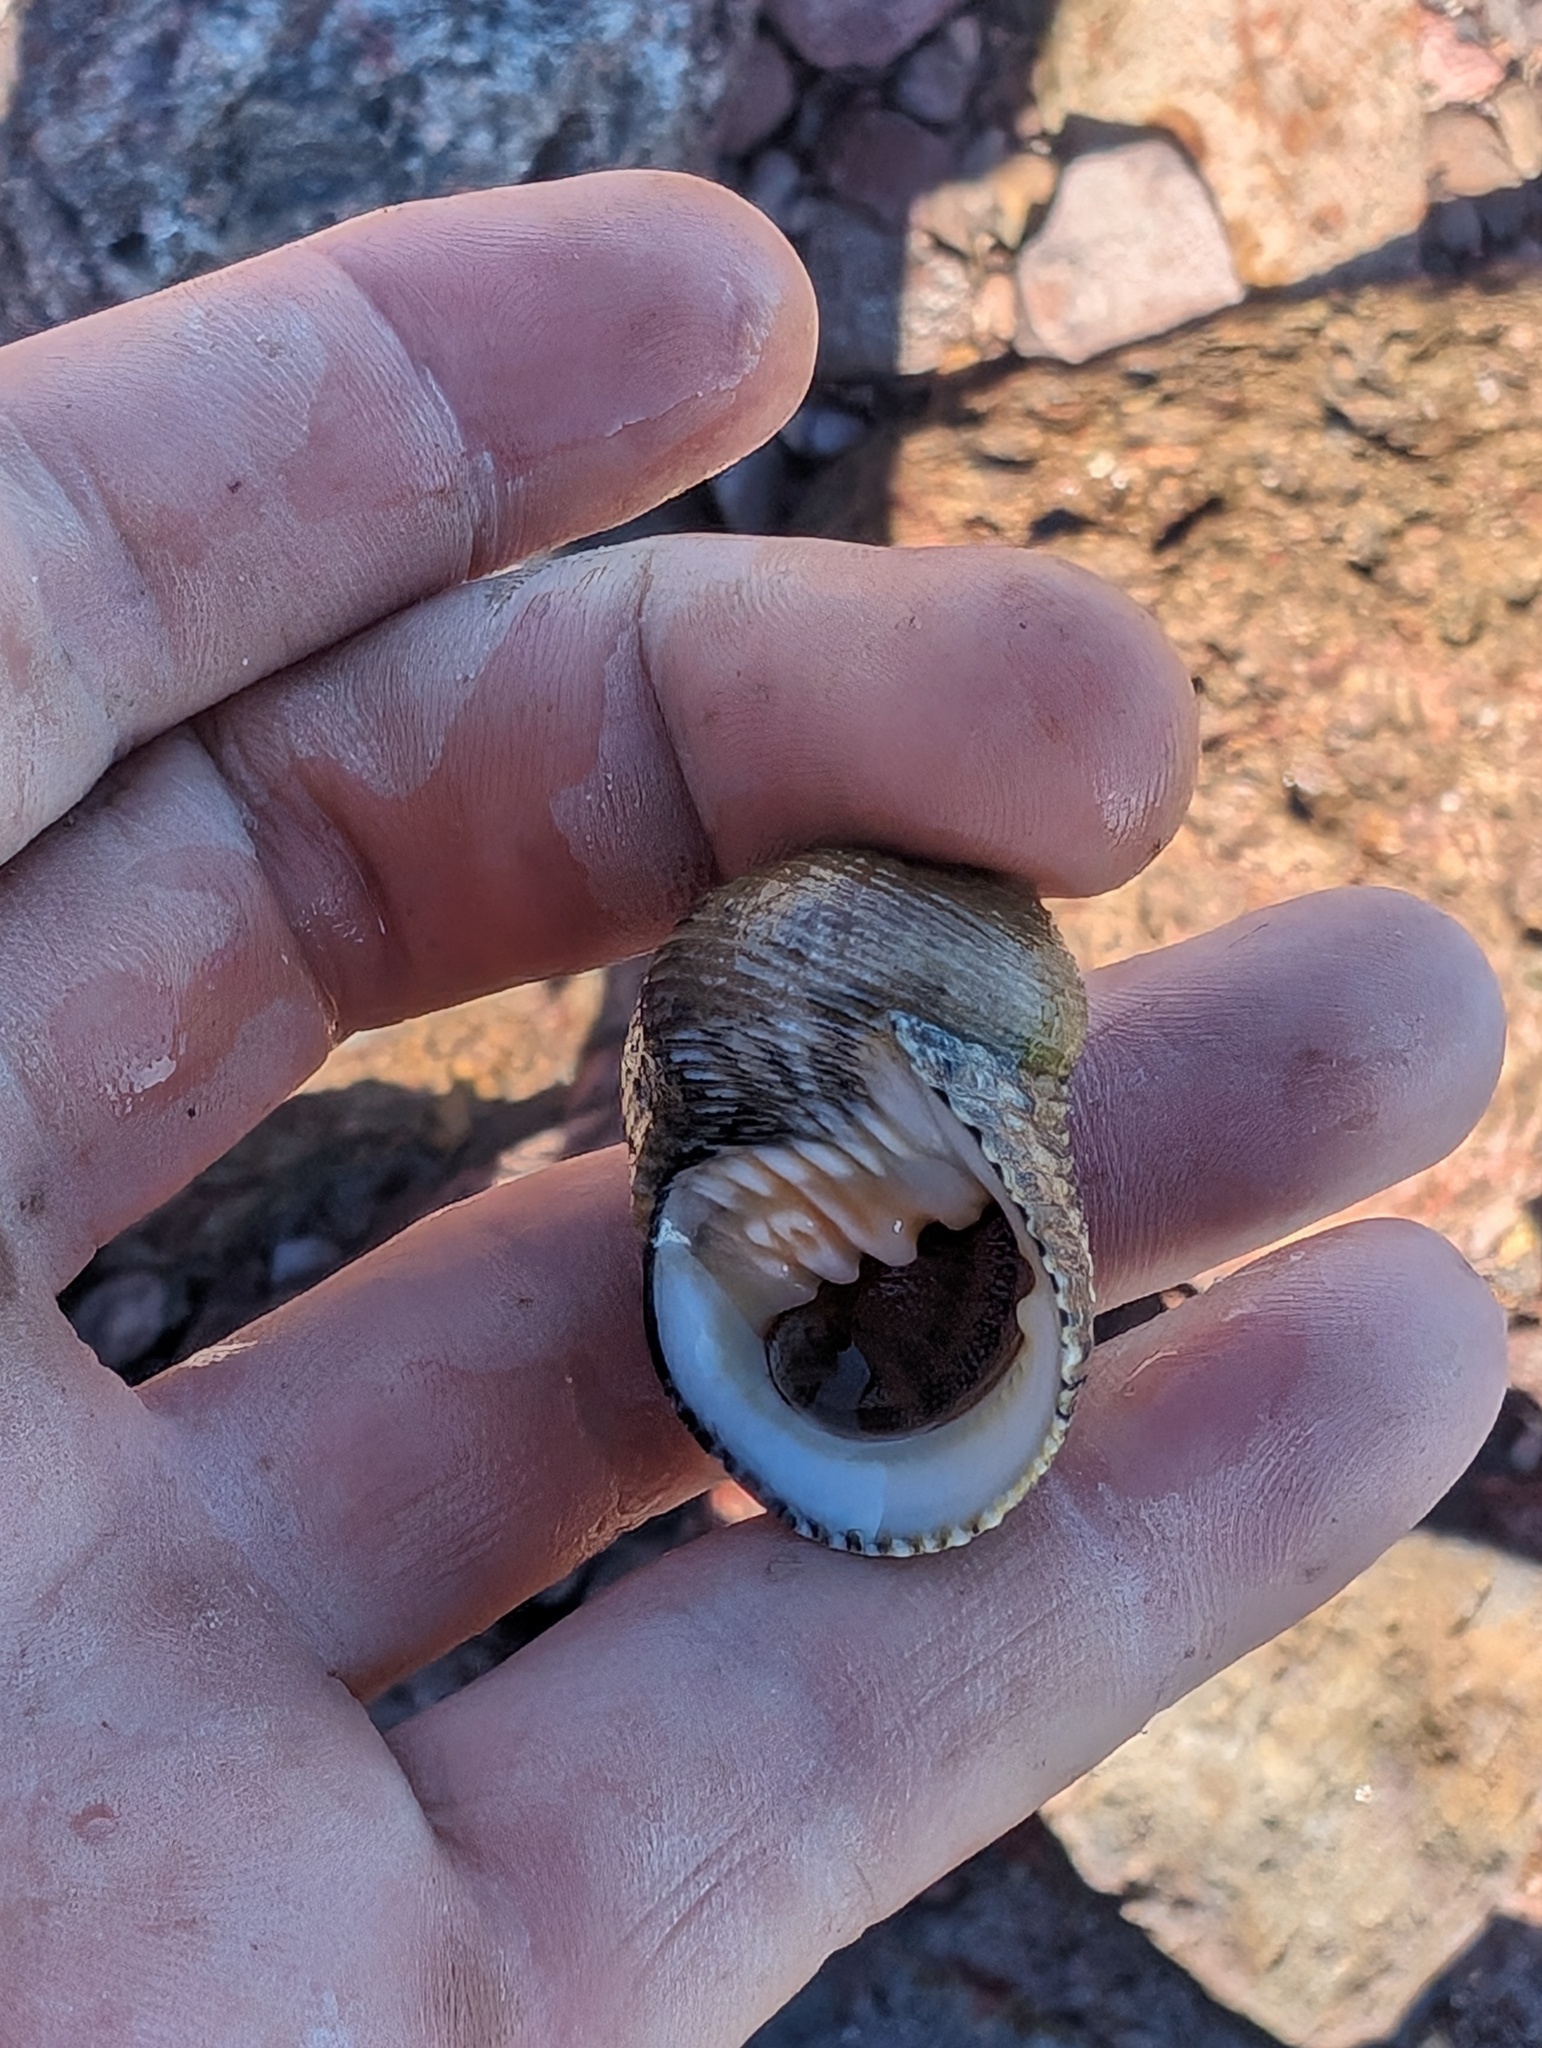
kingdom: Animalia
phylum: Mollusca
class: Gastropoda
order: Cycloneritida
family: Neritidae
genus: Nerita
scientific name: Nerita scabricosta
